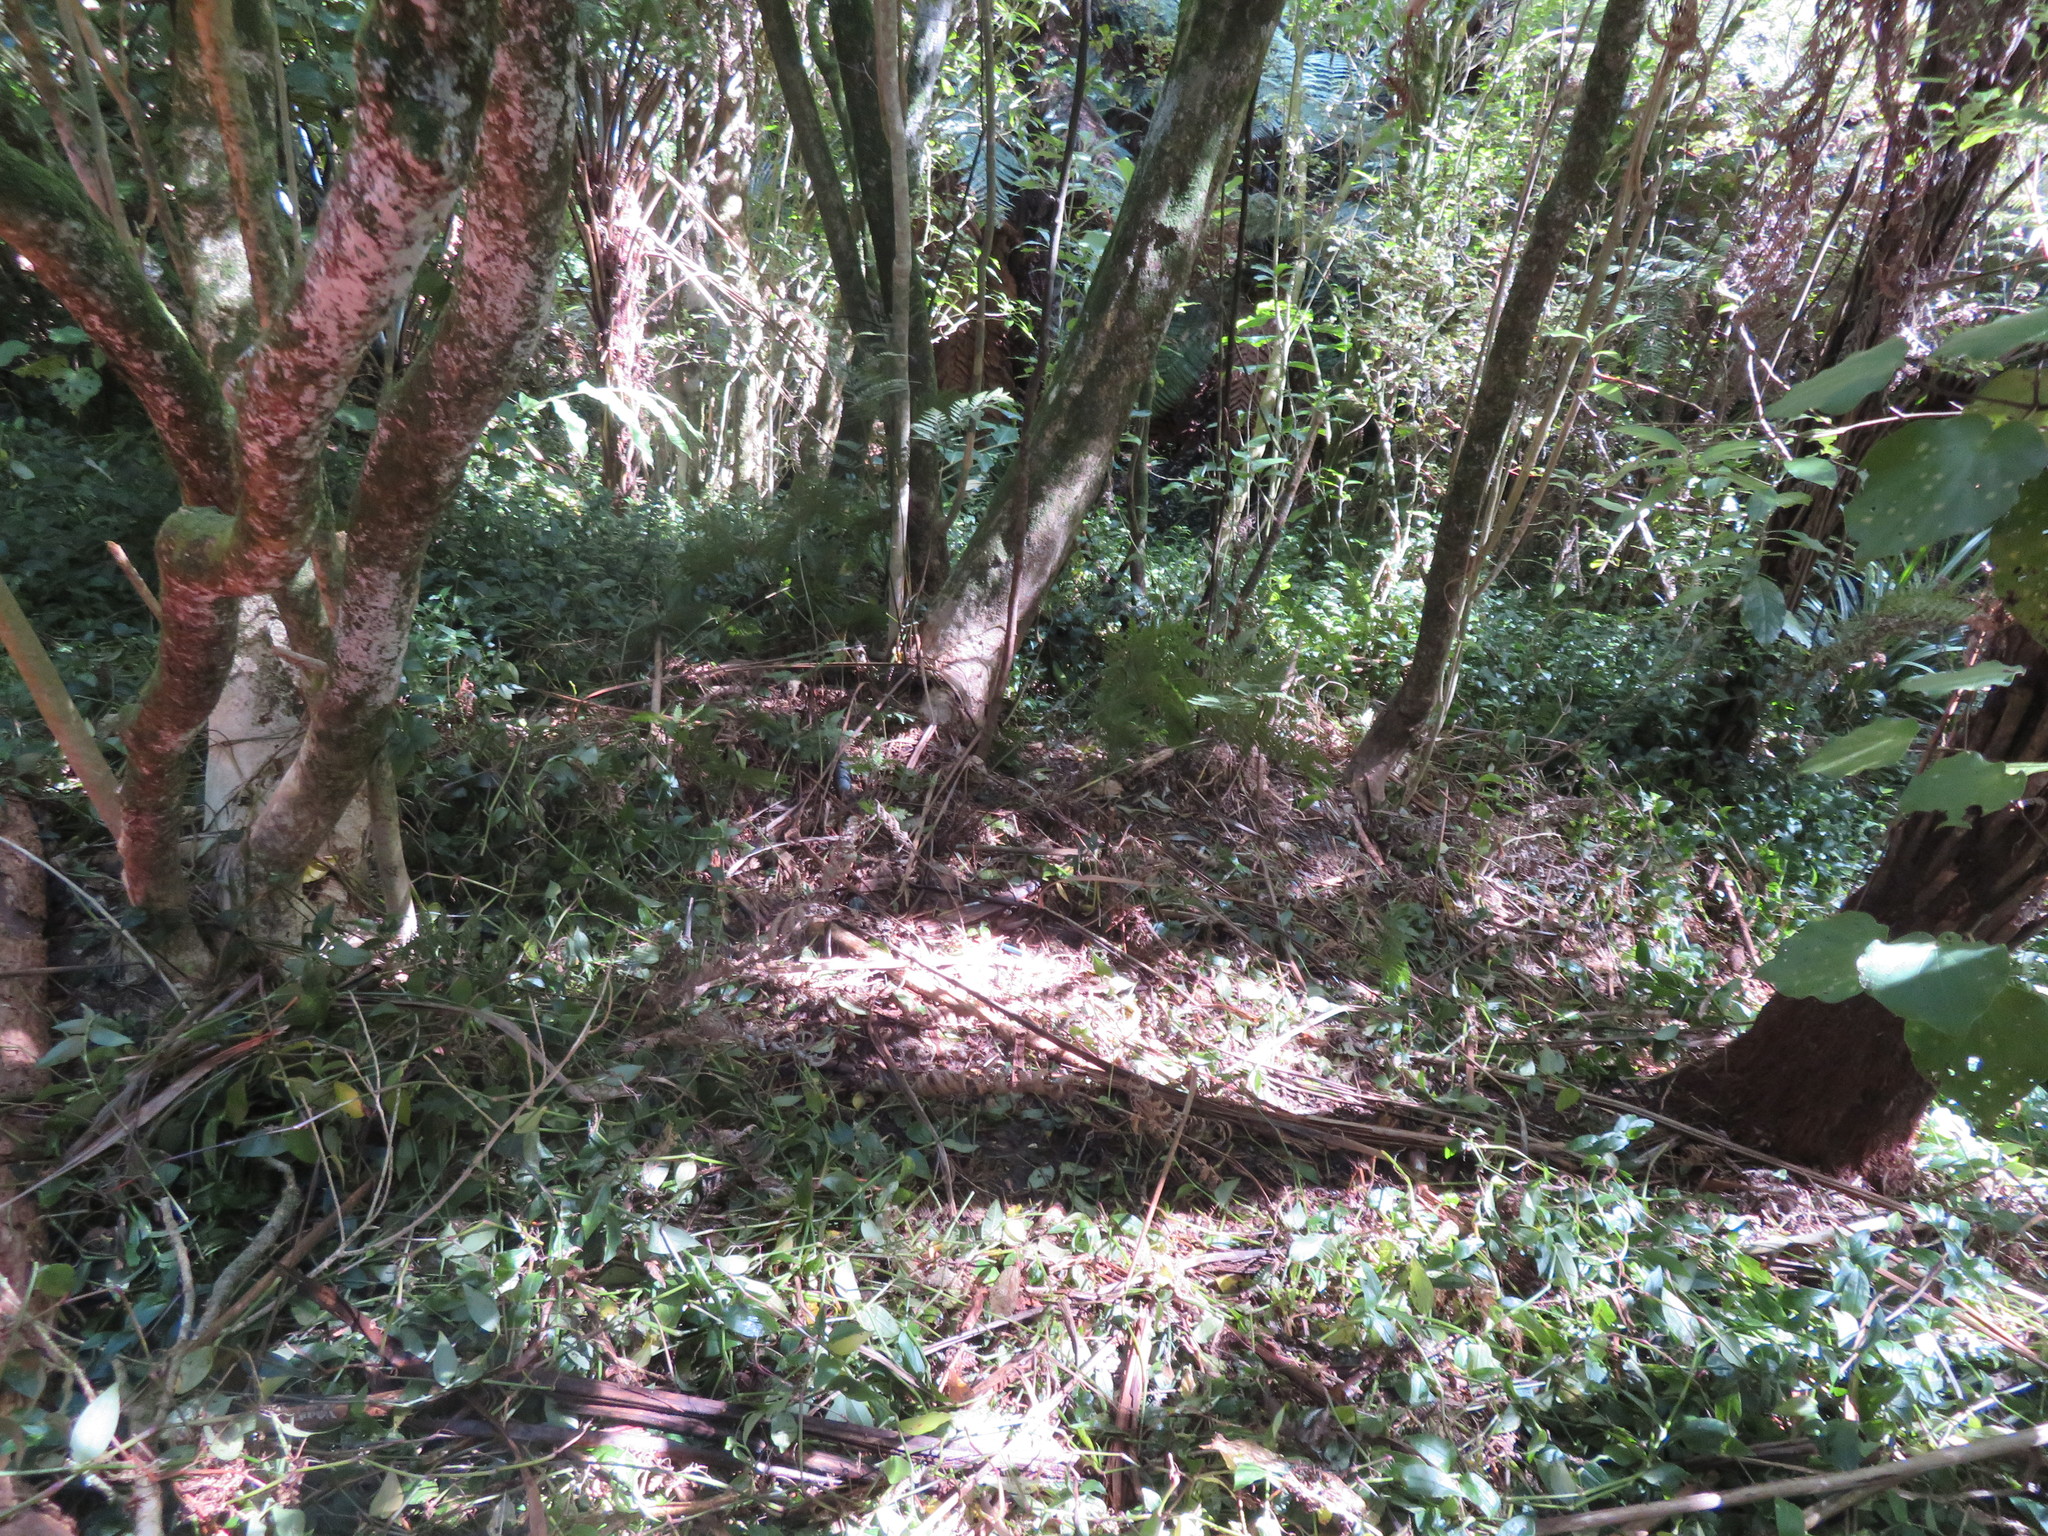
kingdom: Plantae
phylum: Tracheophyta
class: Liliopsida
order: Commelinales
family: Commelinaceae
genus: Tradescantia
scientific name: Tradescantia fluminensis
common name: Wandering-jew
